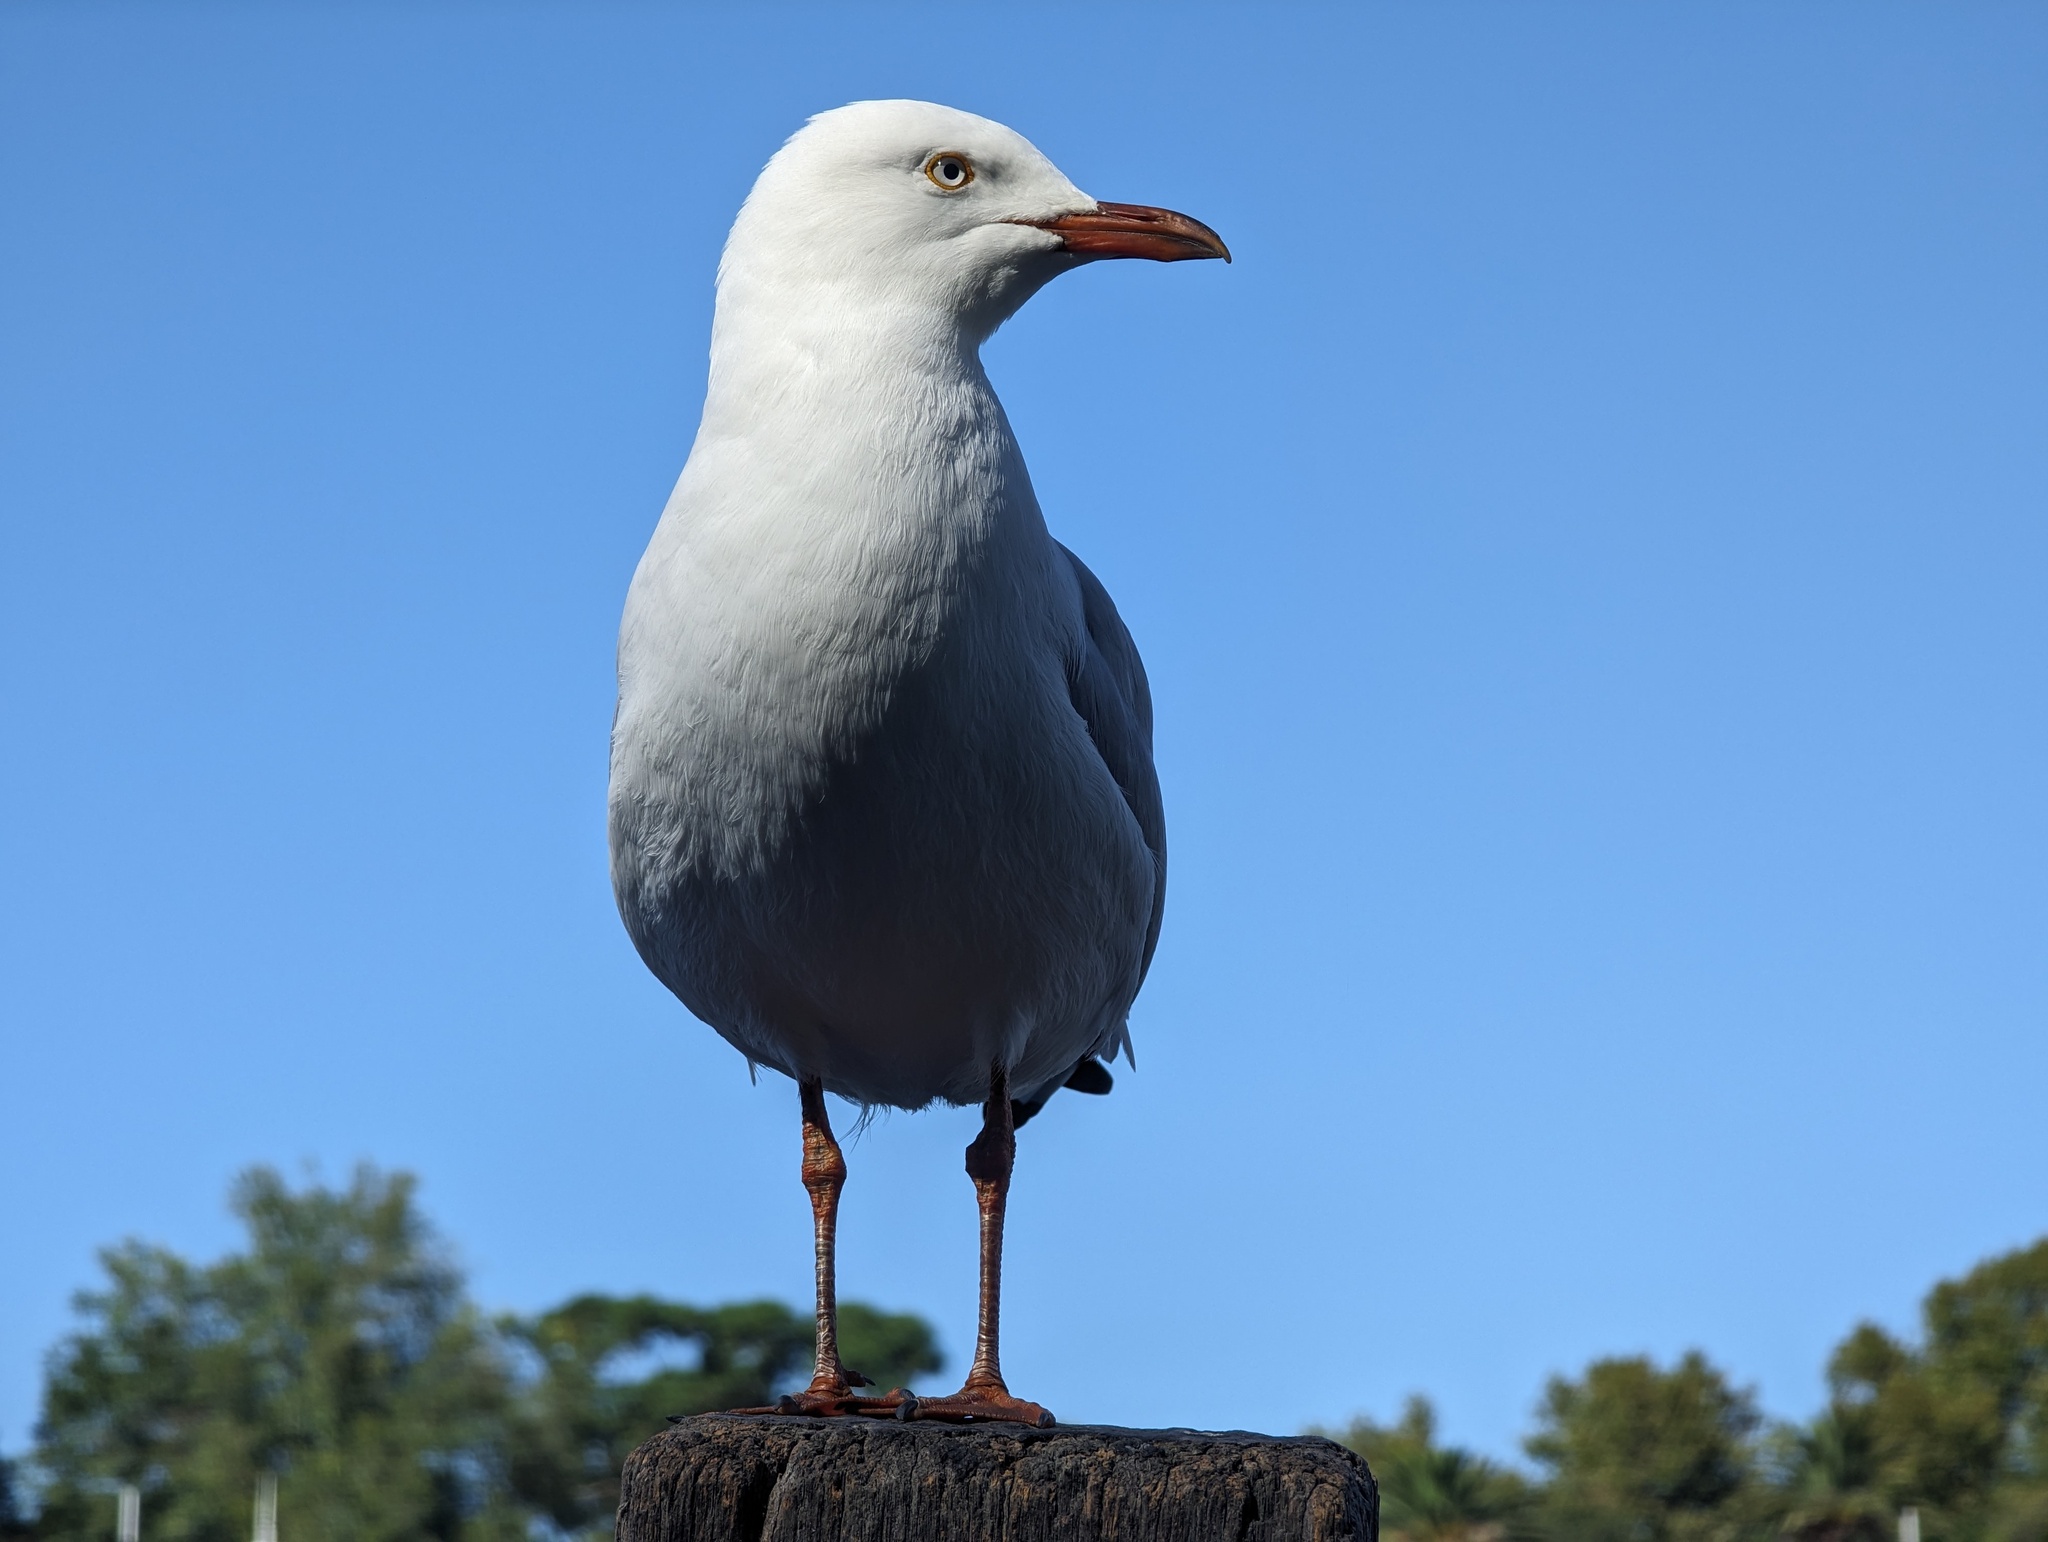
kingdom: Animalia
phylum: Chordata
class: Aves
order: Charadriiformes
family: Laridae
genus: Chroicocephalus
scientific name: Chroicocephalus novaehollandiae
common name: Silver gull
